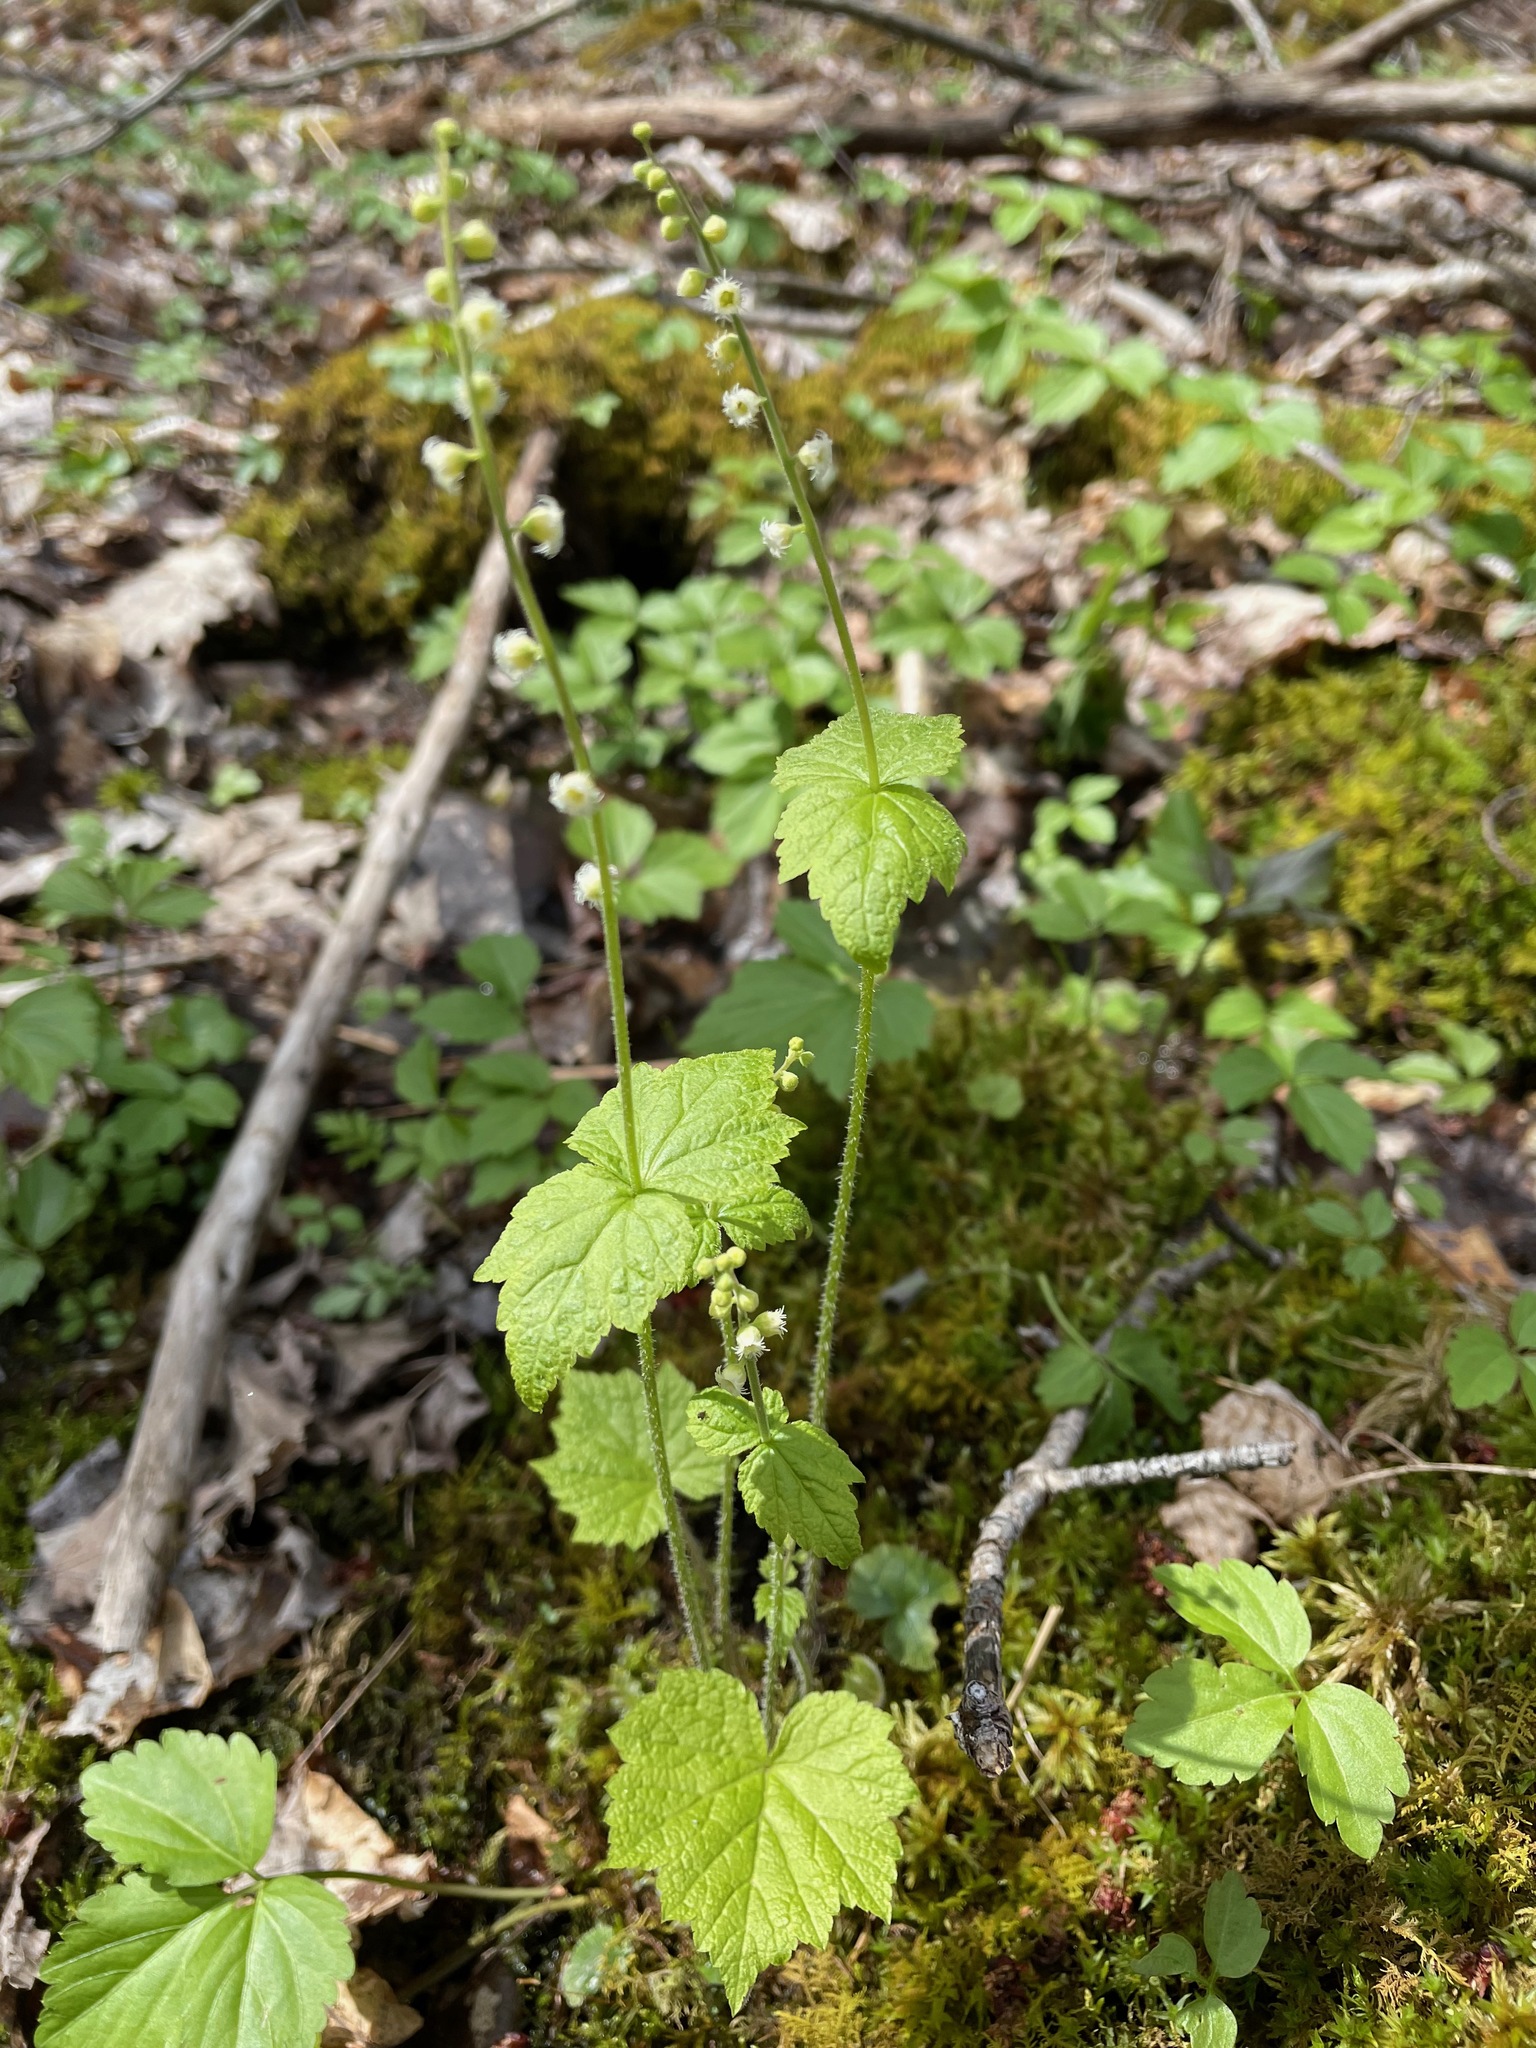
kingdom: Plantae
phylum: Tracheophyta
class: Magnoliopsida
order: Saxifragales
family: Saxifragaceae
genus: Mitella
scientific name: Mitella diphylla
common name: Coolwort
